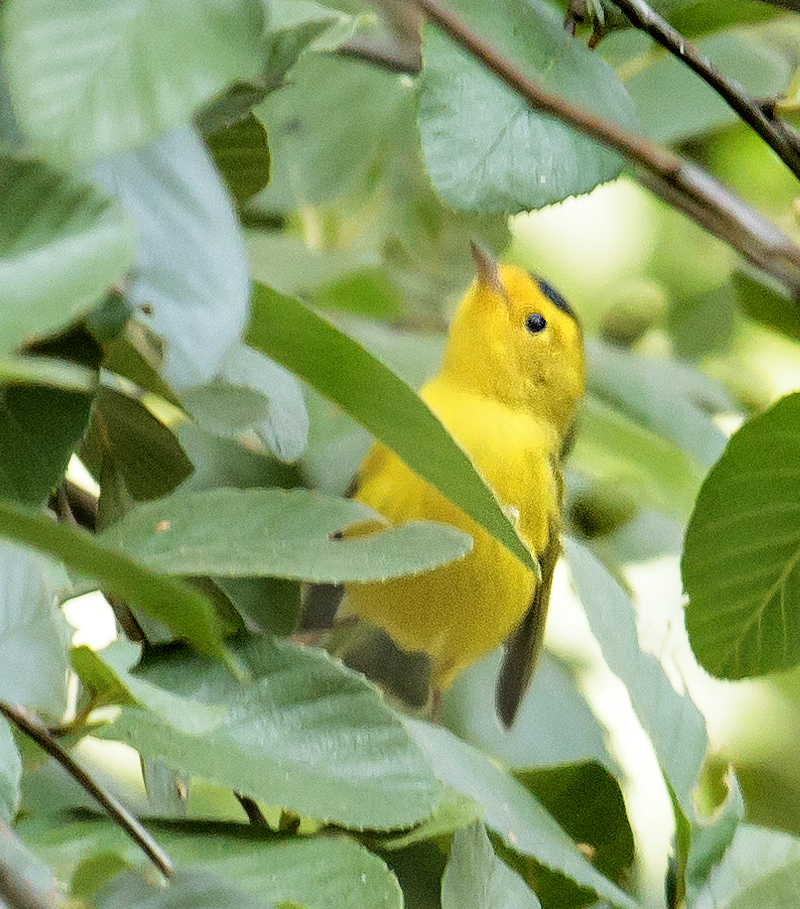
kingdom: Animalia
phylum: Chordata
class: Aves
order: Passeriformes
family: Parulidae
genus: Cardellina
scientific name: Cardellina pusilla
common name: Wilson's warbler
